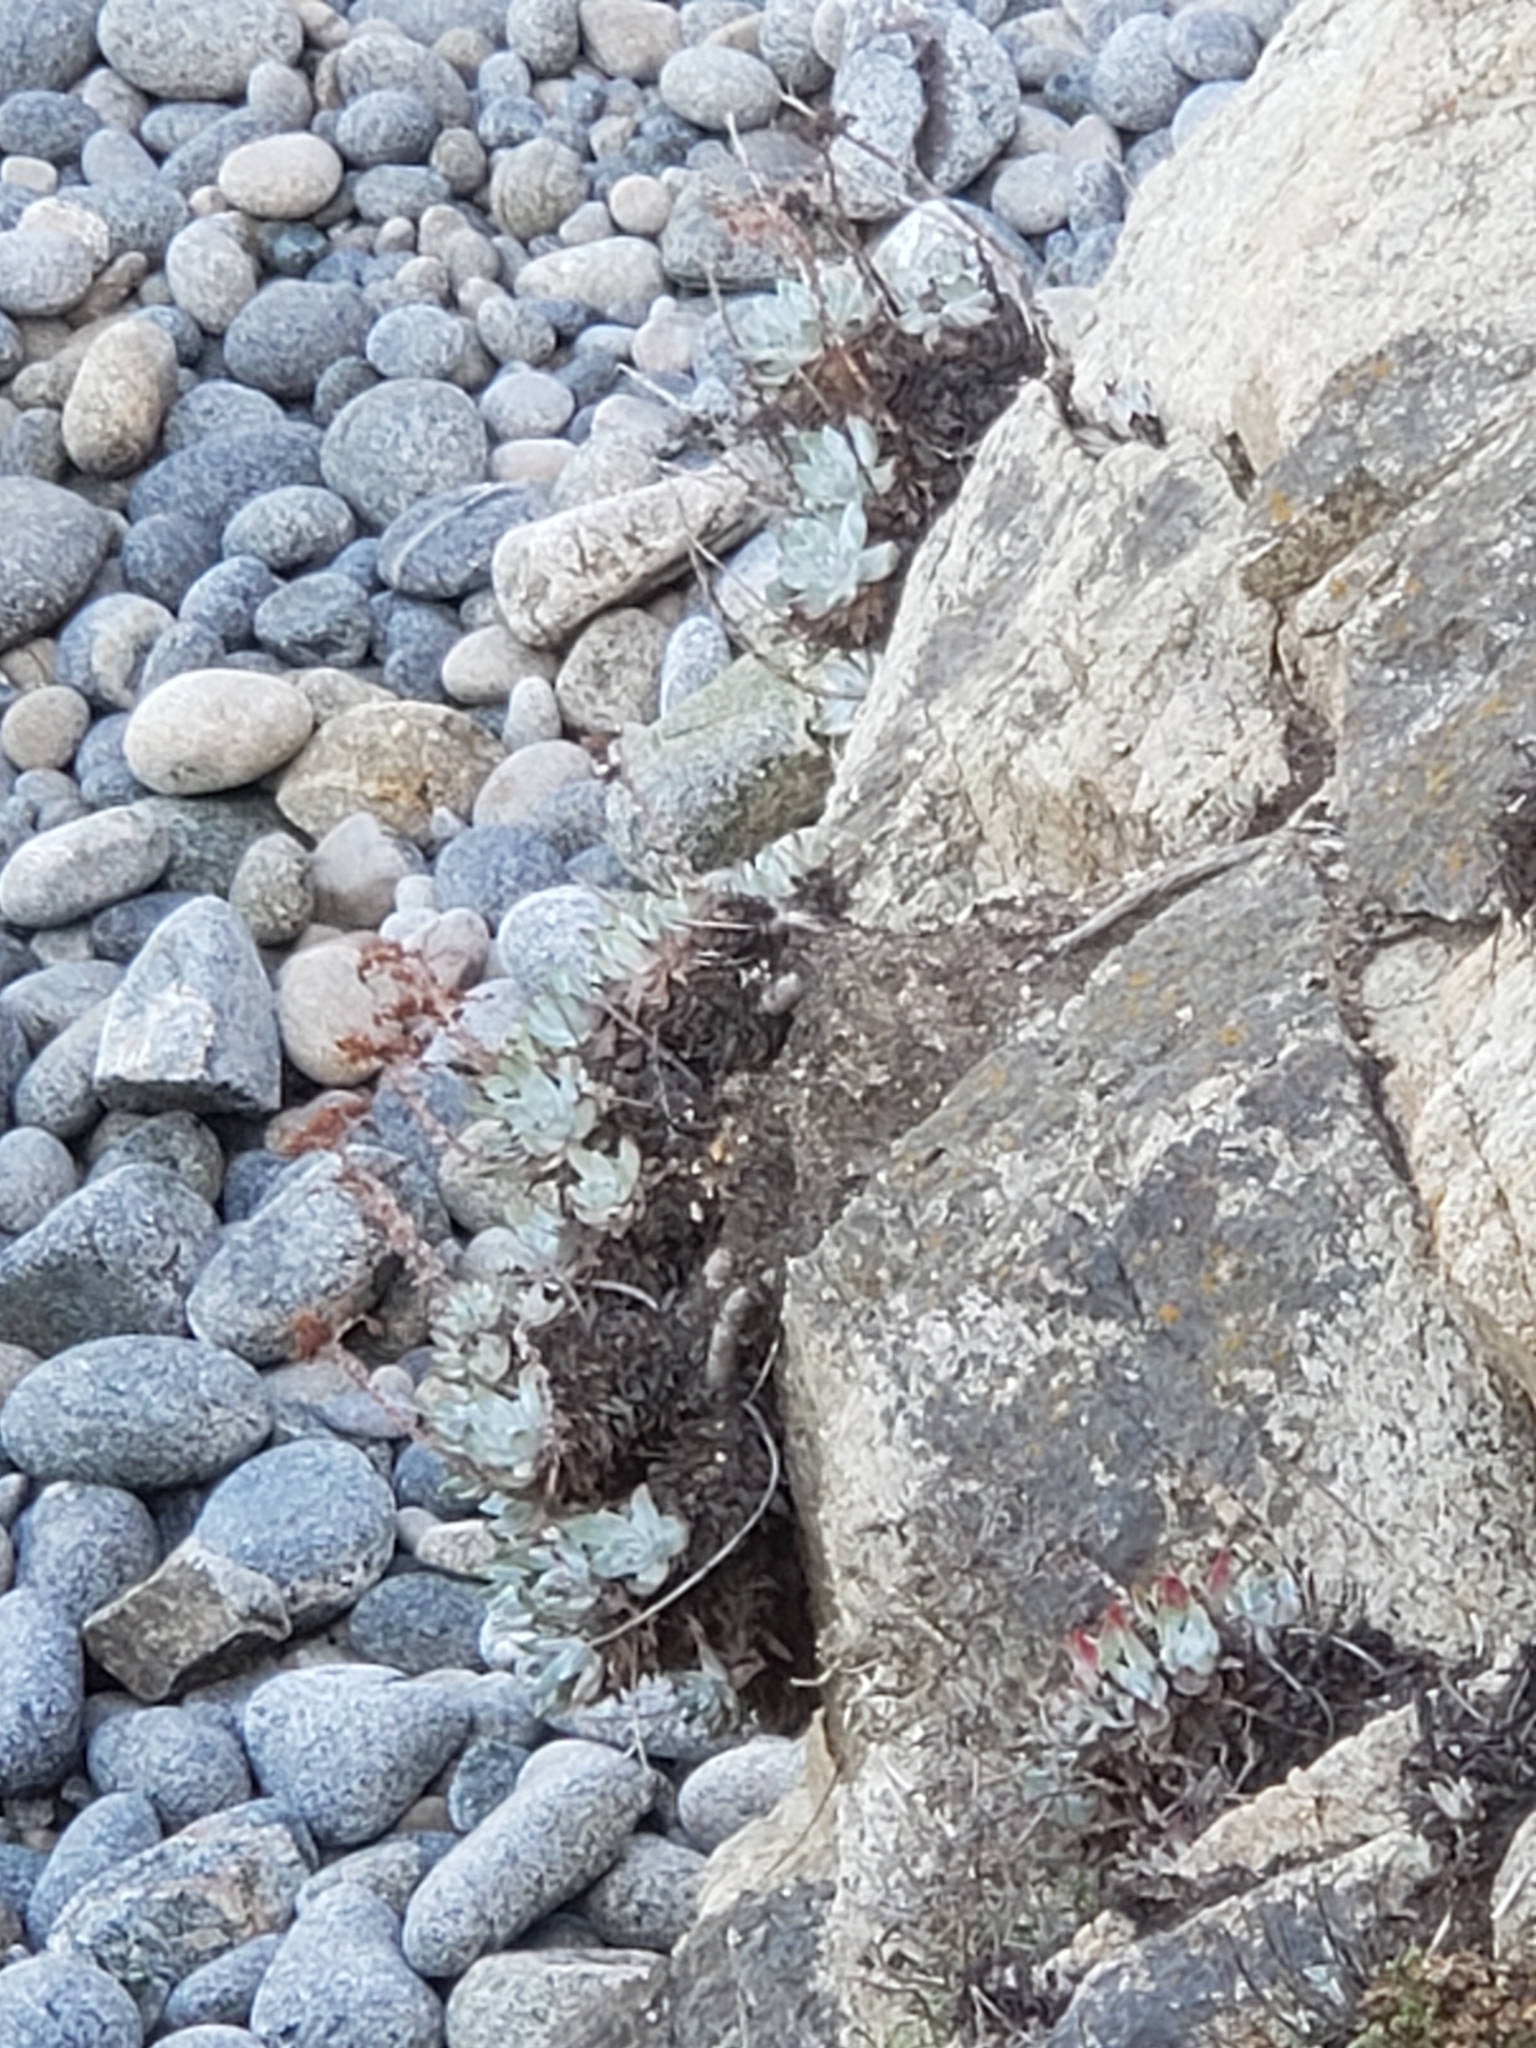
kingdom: Plantae
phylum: Tracheophyta
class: Magnoliopsida
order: Saxifragales
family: Crassulaceae
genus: Dudleya
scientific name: Dudleya farinosa
